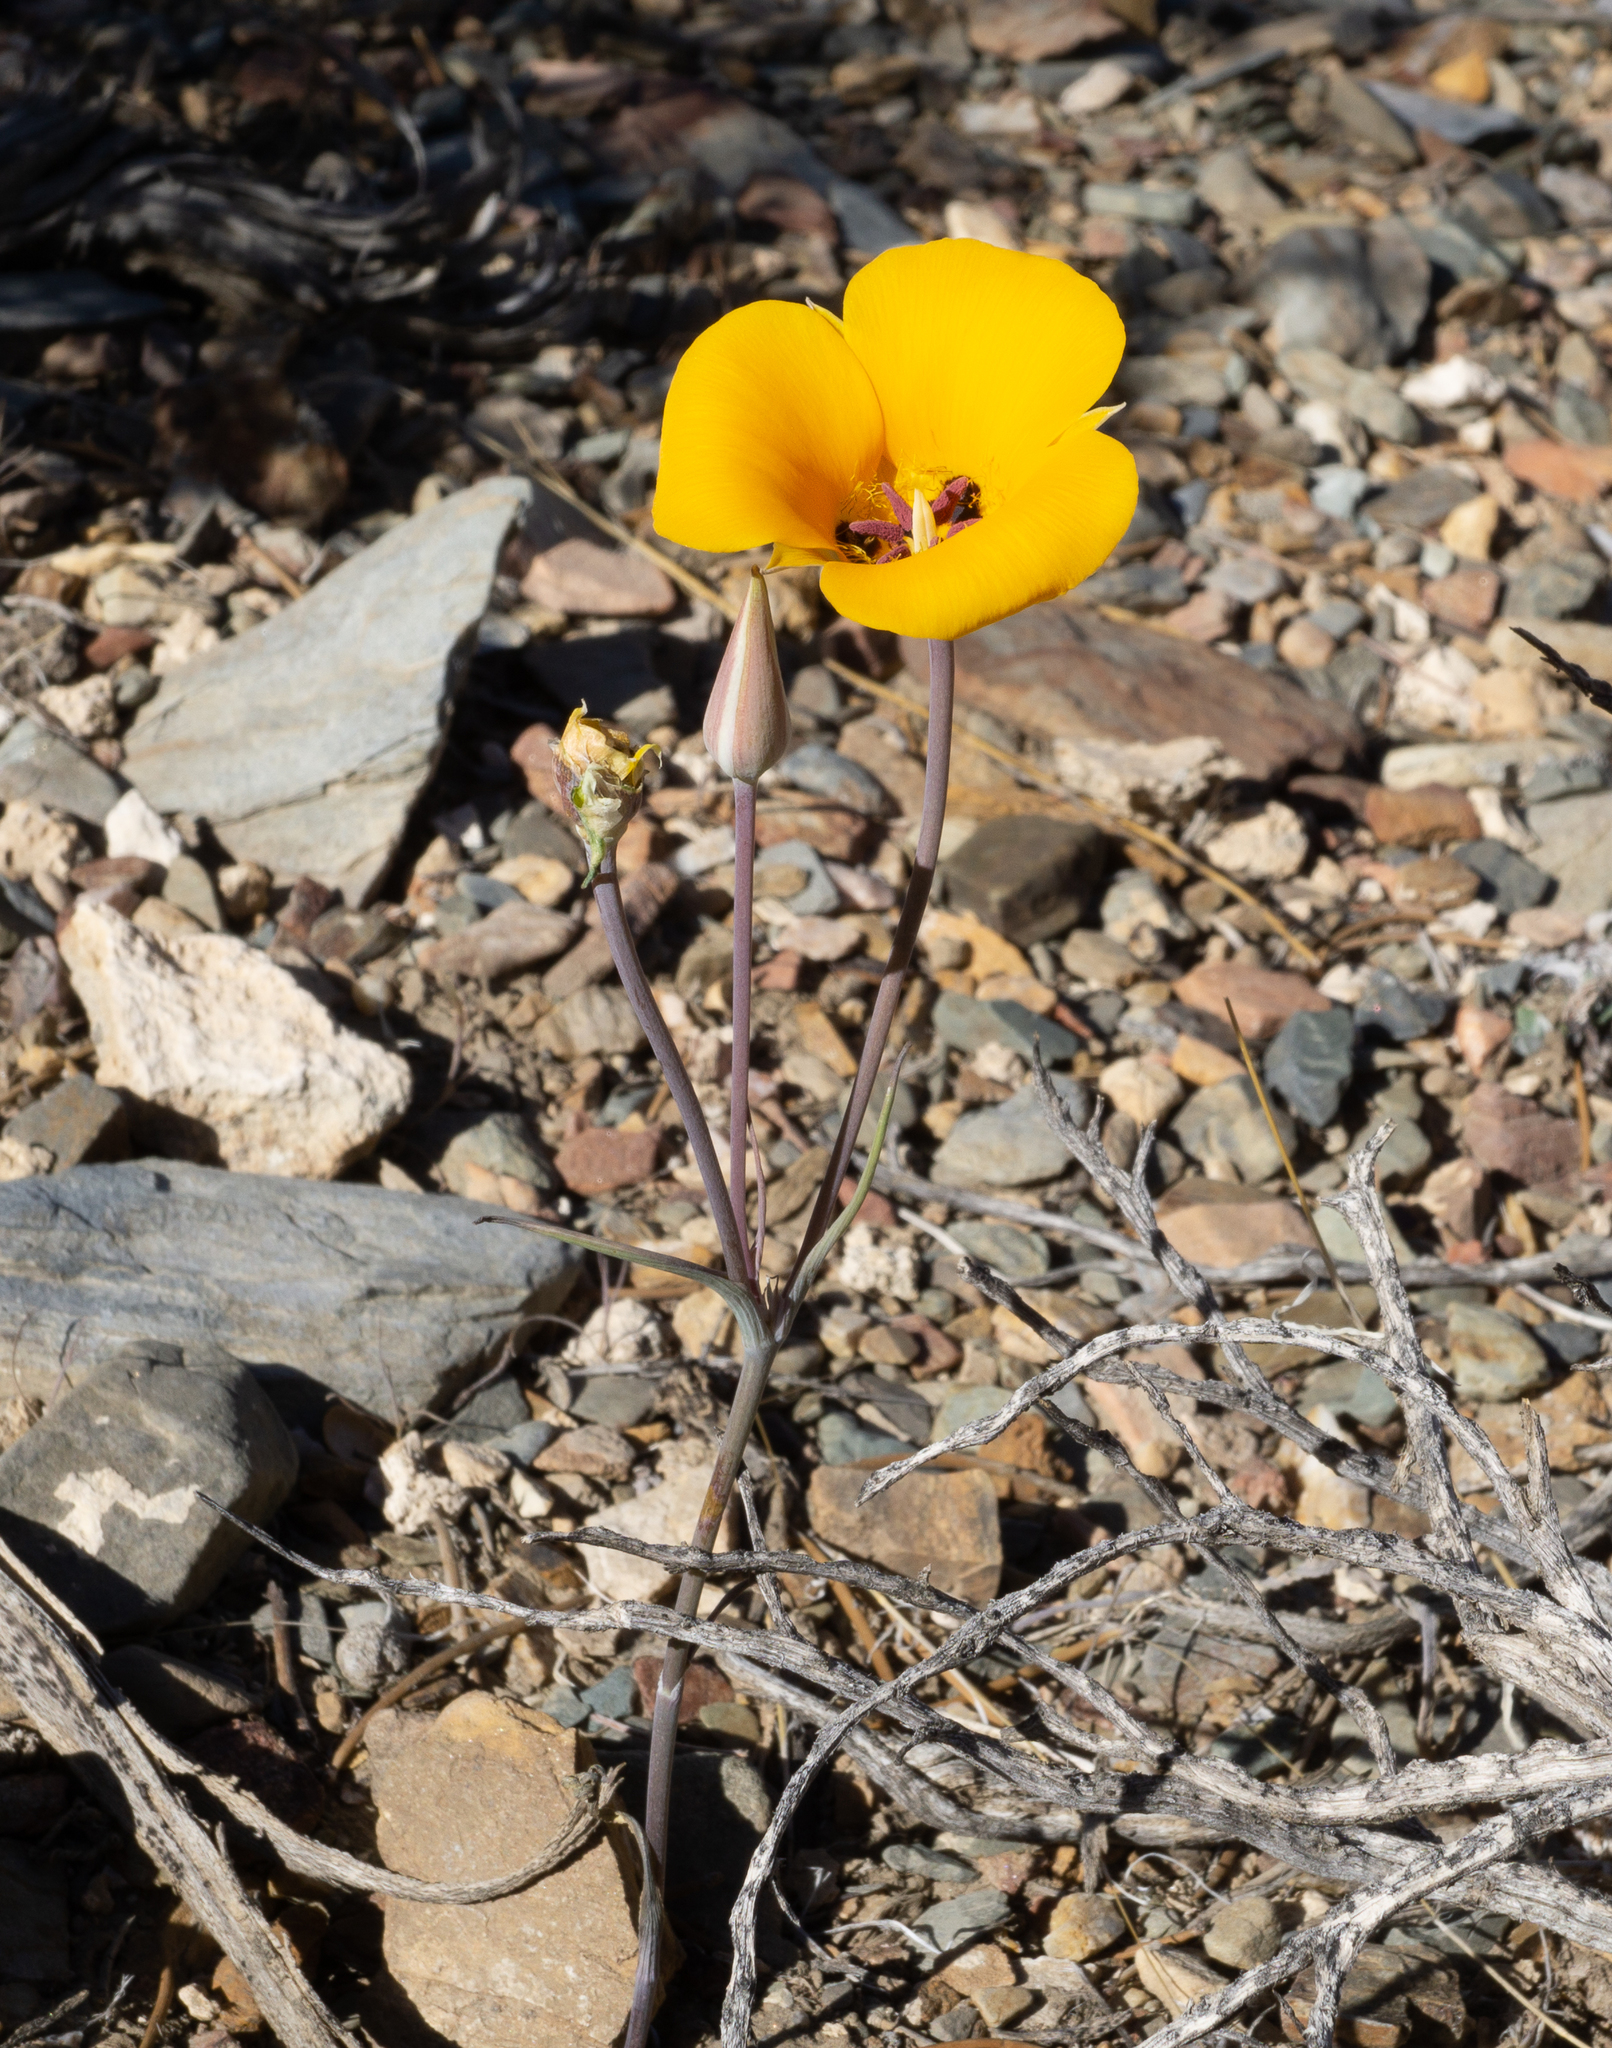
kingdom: Plantae
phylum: Tracheophyta
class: Liliopsida
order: Liliales
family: Liliaceae
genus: Calochortus
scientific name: Calochortus kennedyi
